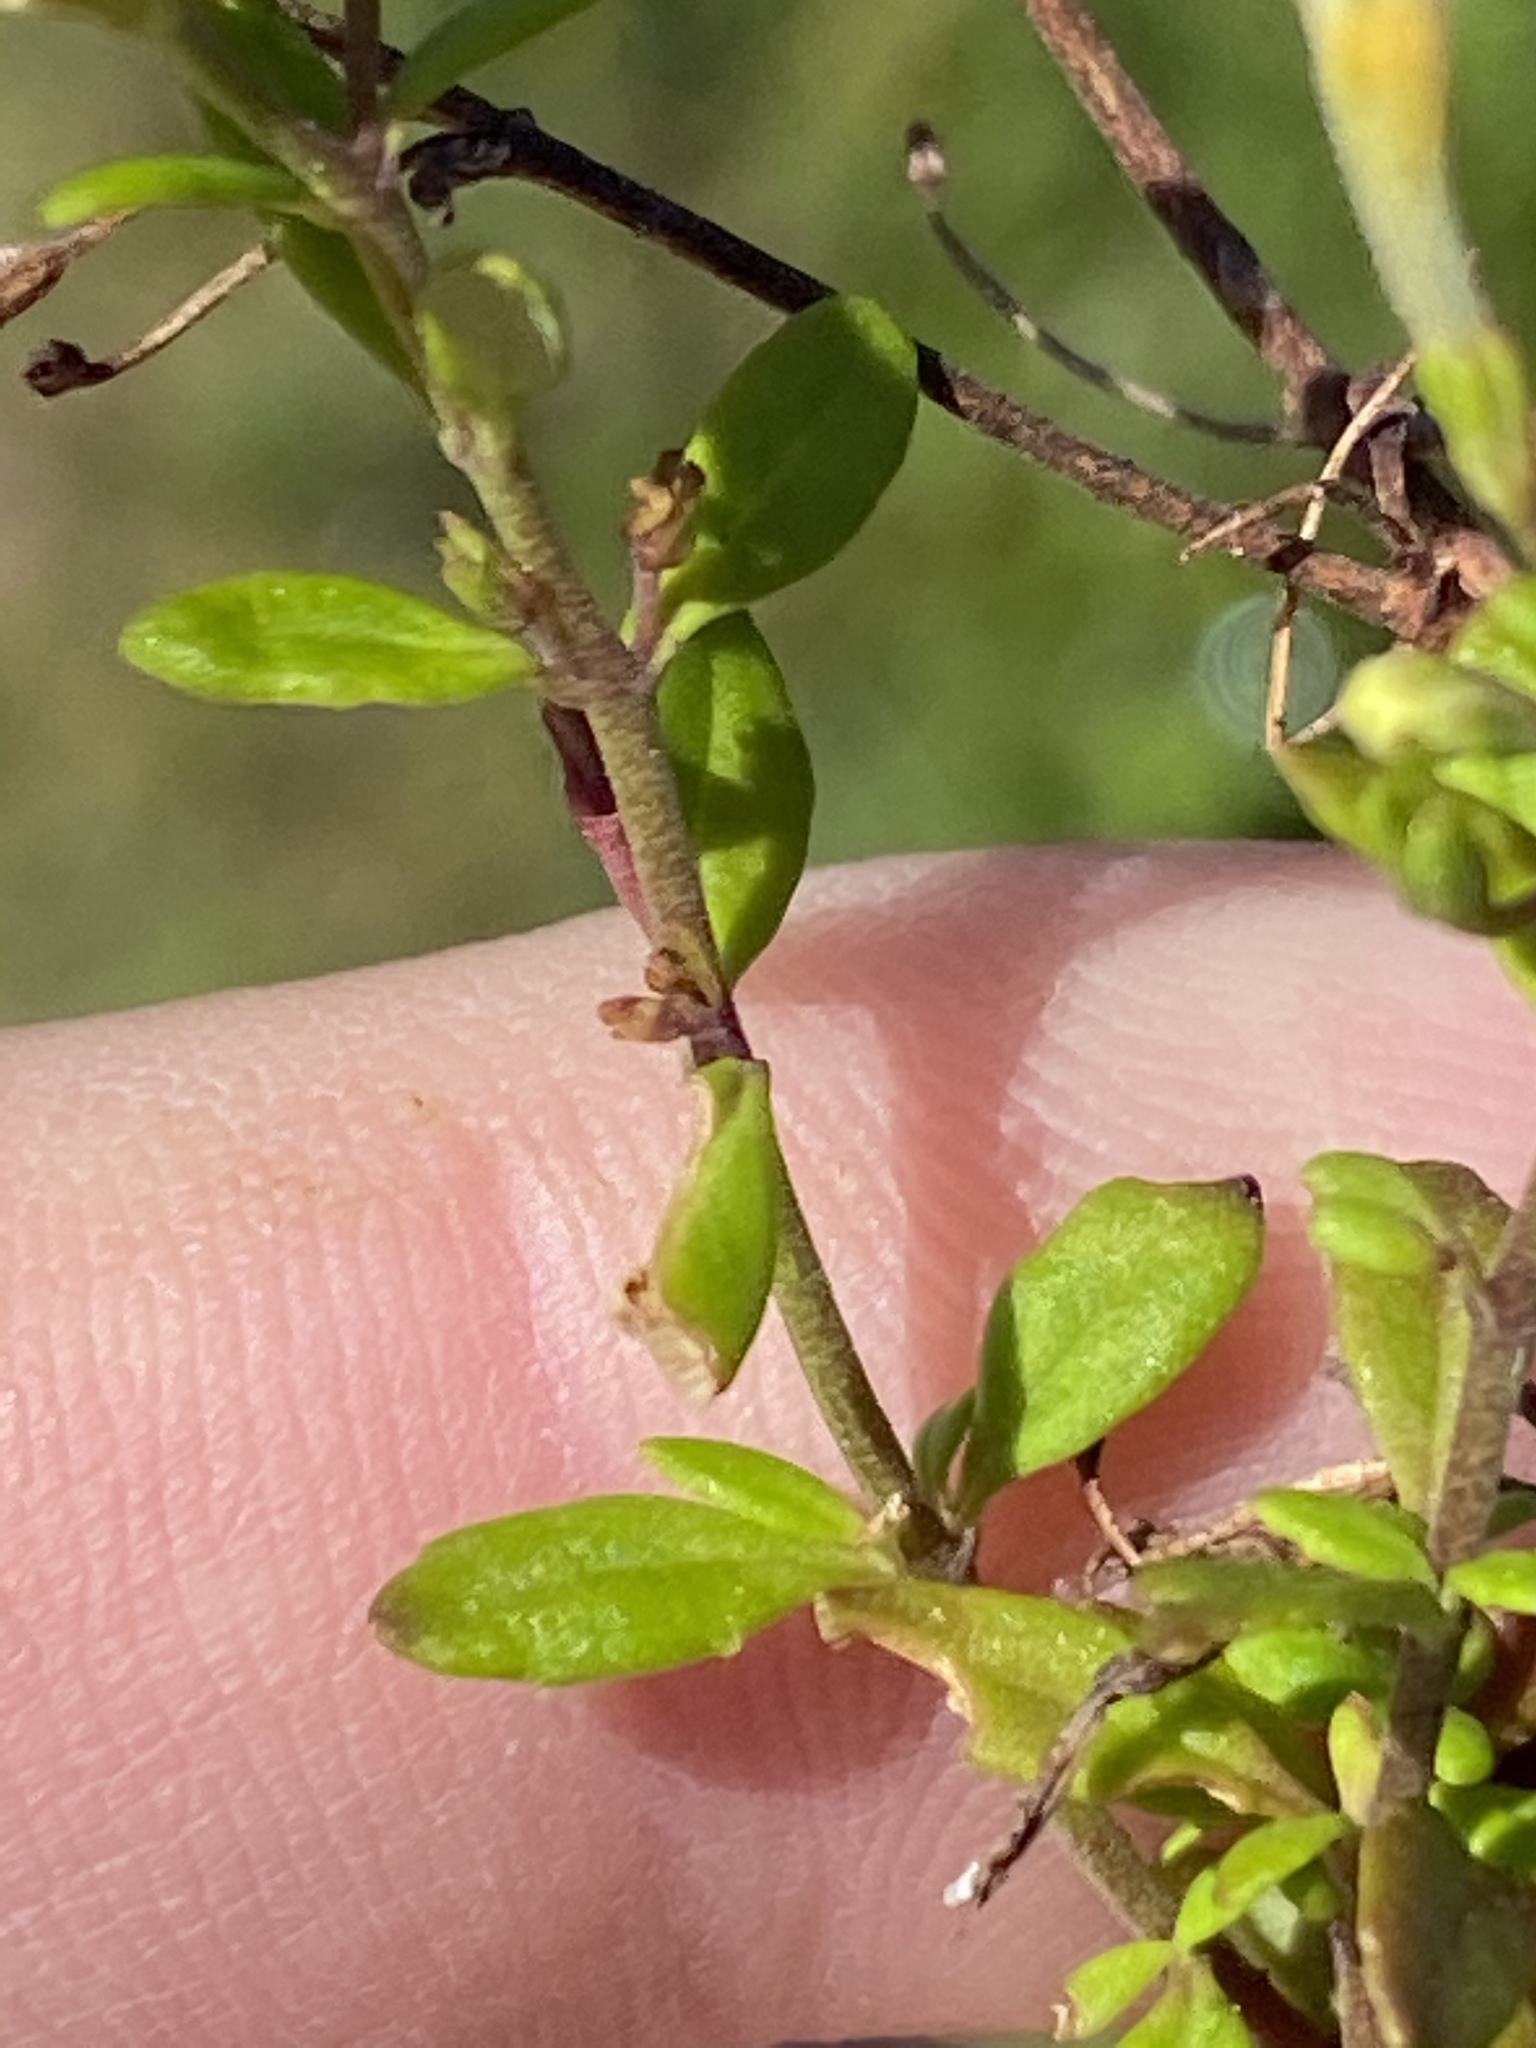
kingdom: Plantae
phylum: Tracheophyta
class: Magnoliopsida
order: Lamiales
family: Scrophulariaceae
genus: Chaenostoma
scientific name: Chaenostoma integrifolium
